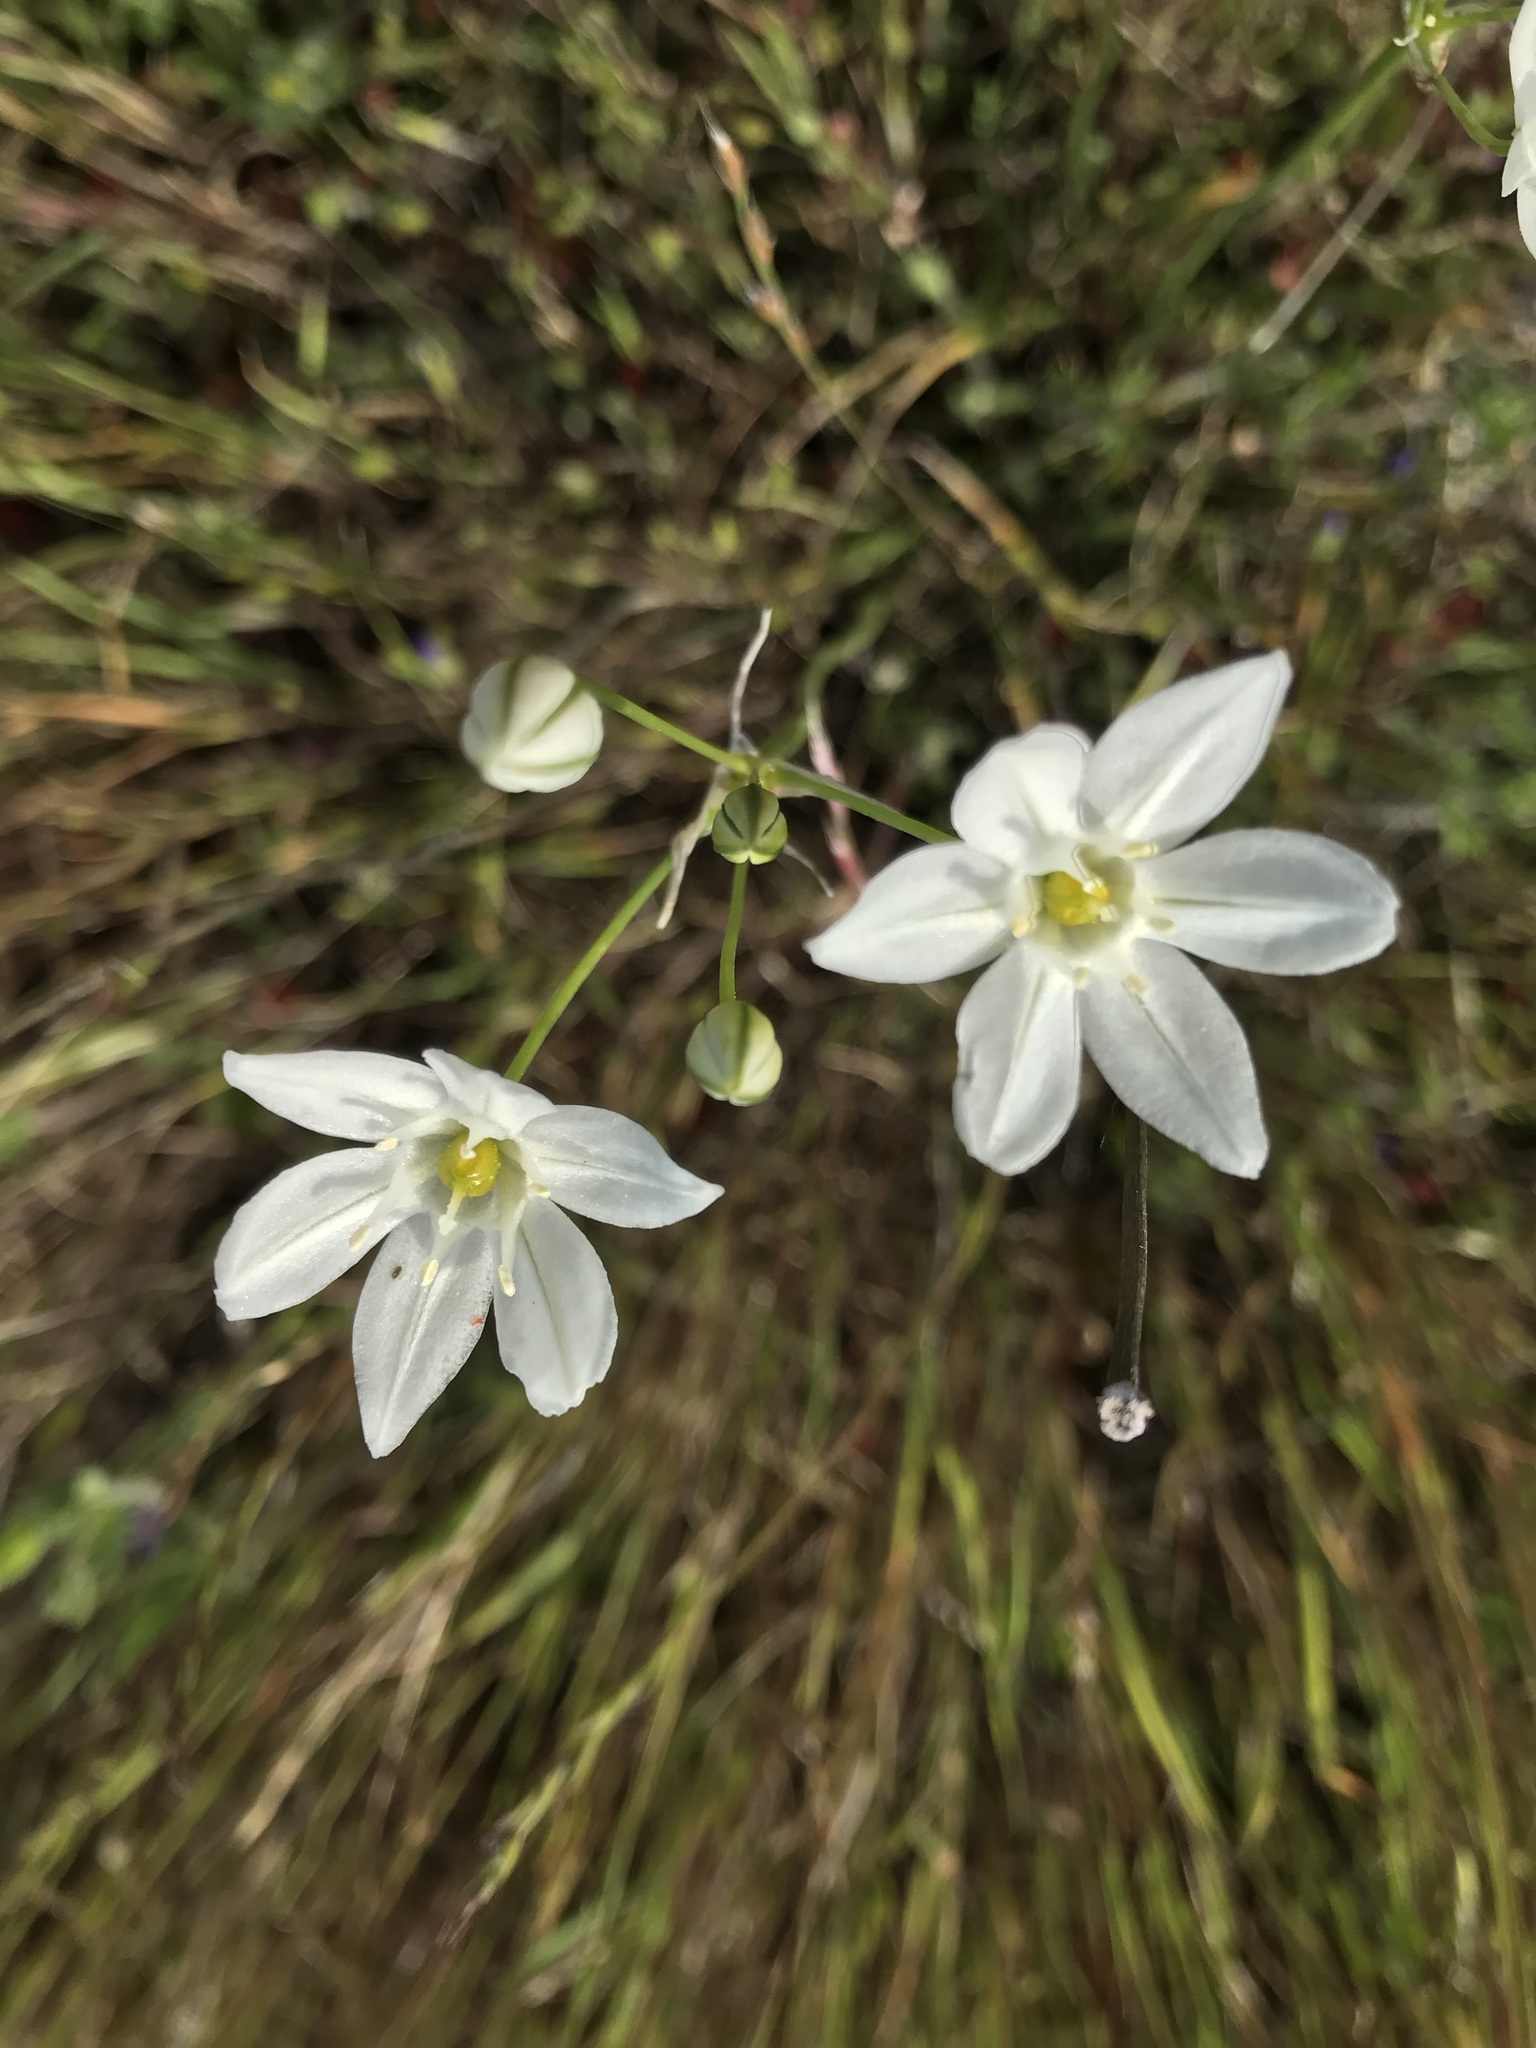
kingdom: Plantae
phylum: Tracheophyta
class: Liliopsida
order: Asparagales
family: Asparagaceae
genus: Triteleia
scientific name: Triteleia hyacinthina
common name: White brodiaea
